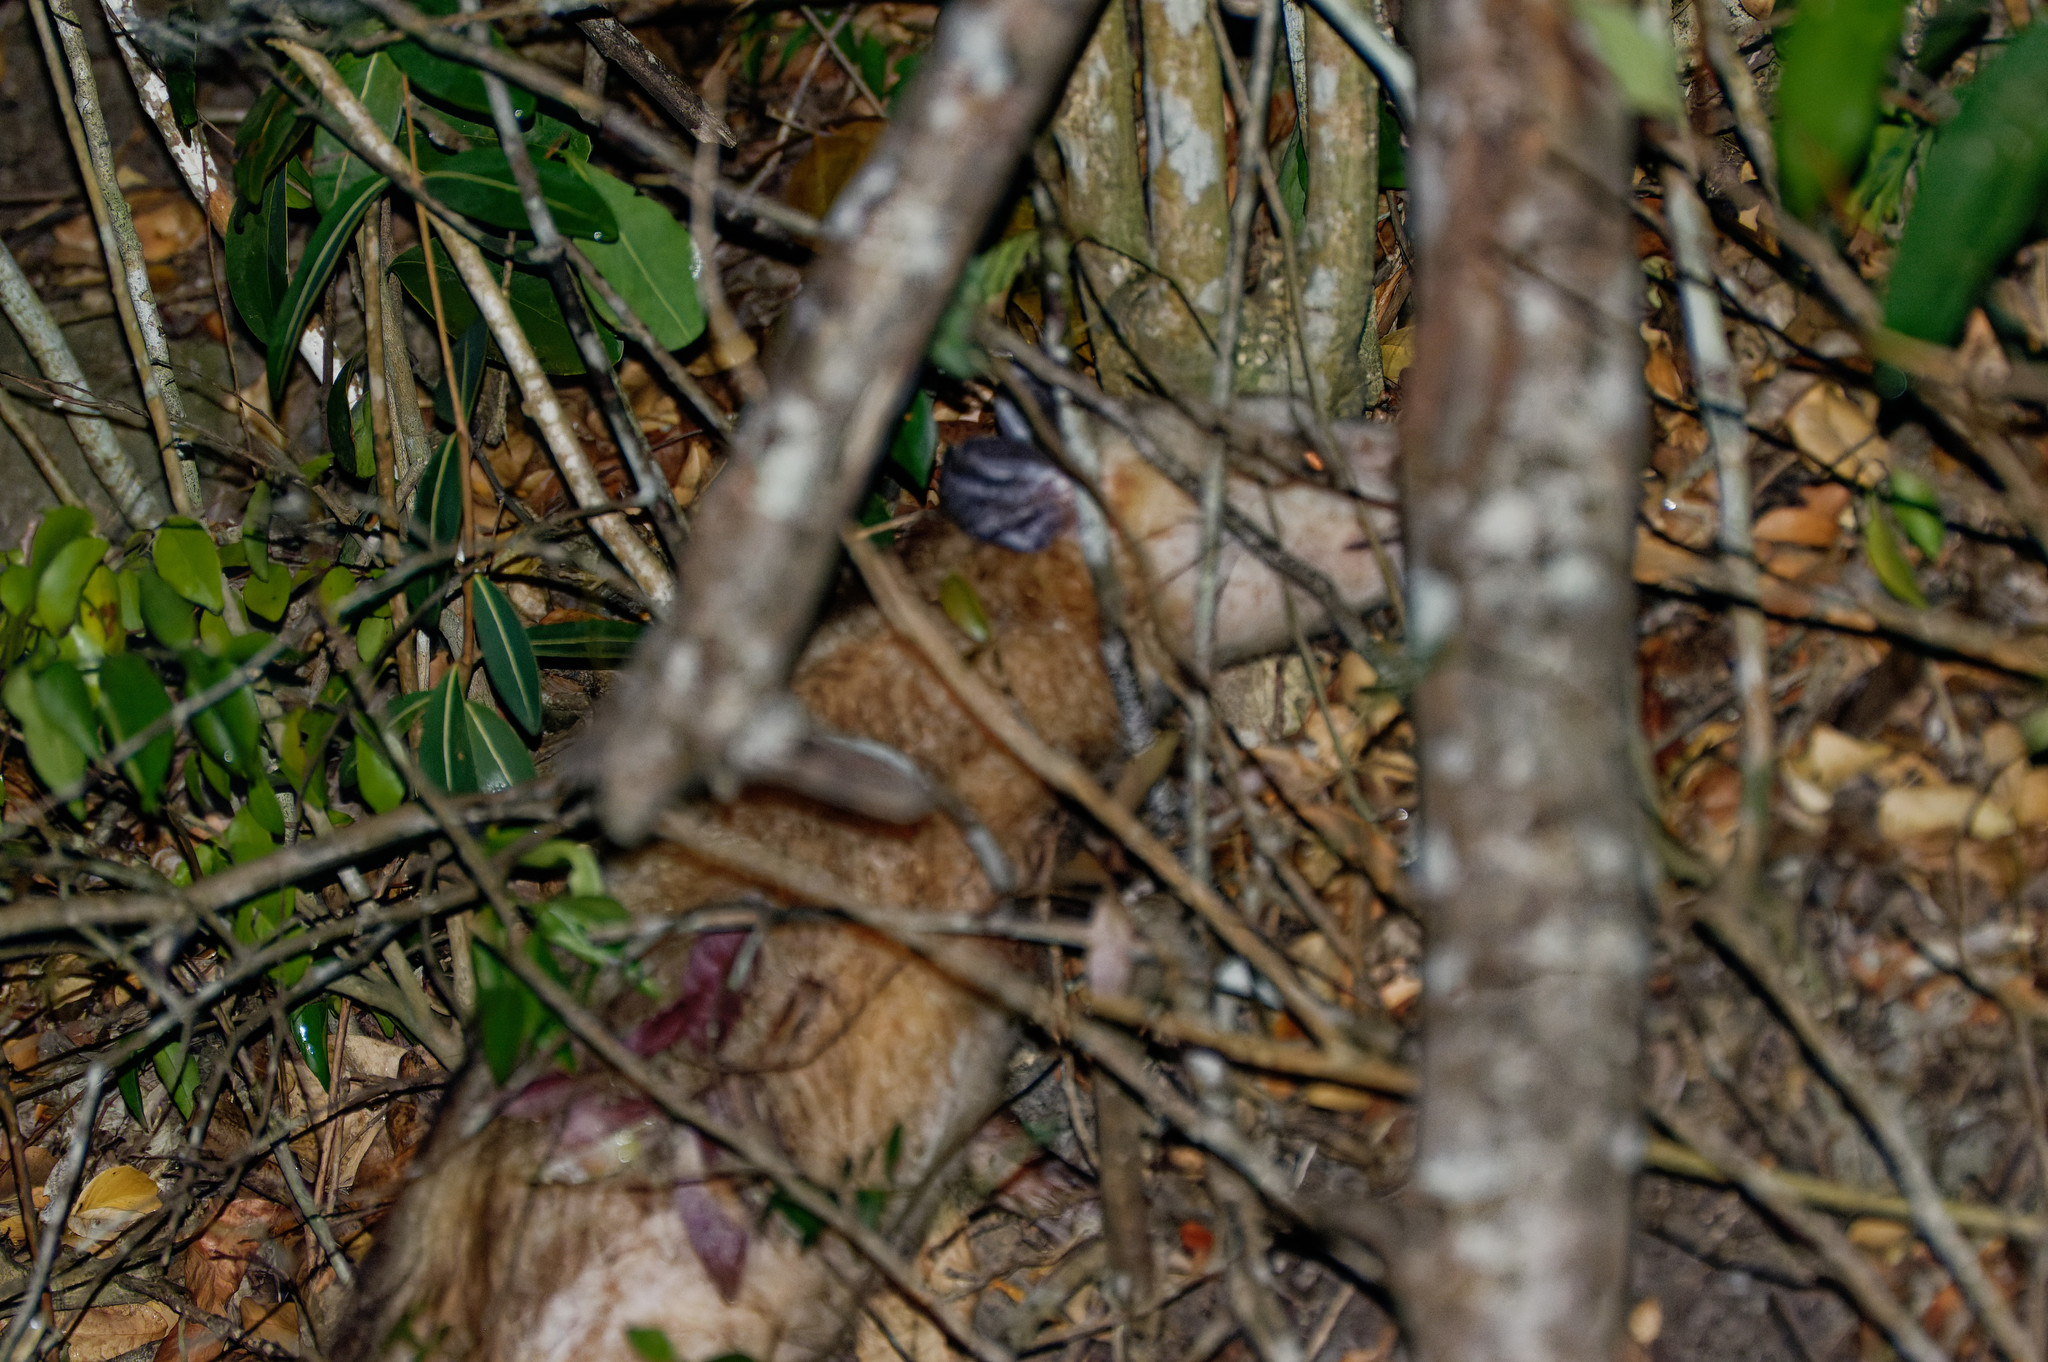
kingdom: Animalia
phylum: Chordata
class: Mammalia
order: Didelphimorphia
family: Didelphidae
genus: Didelphis
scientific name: Didelphis marsupialis
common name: Common opossum
